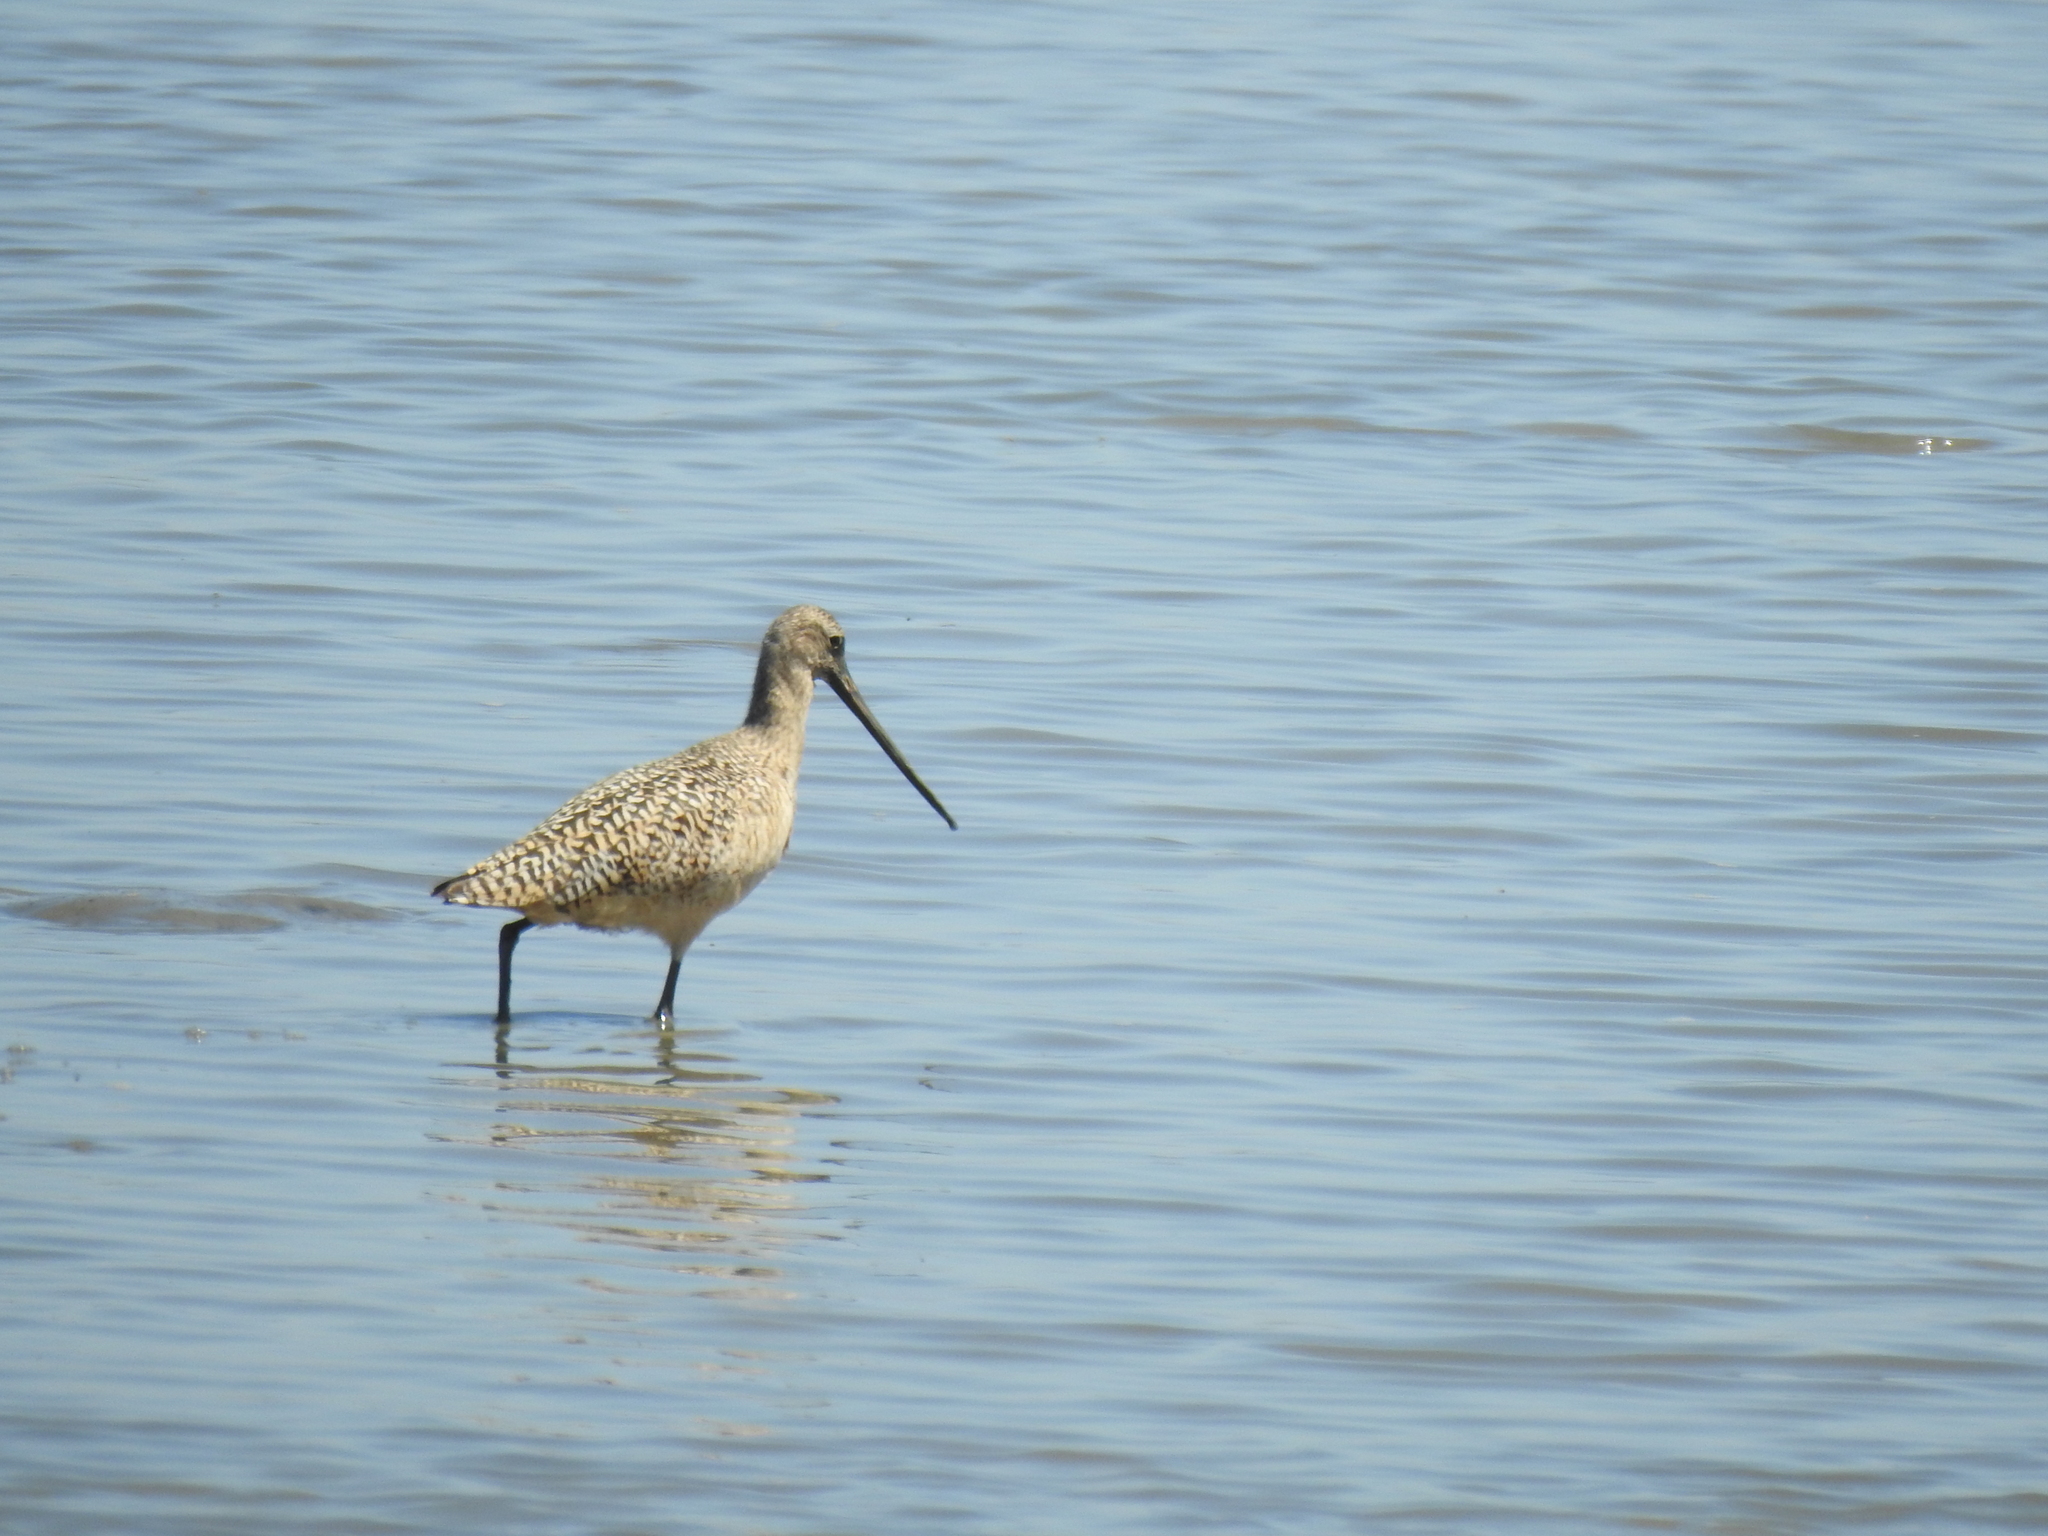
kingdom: Animalia
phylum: Chordata
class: Aves
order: Charadriiformes
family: Scolopacidae
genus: Limosa
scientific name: Limosa fedoa
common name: Marbled godwit
